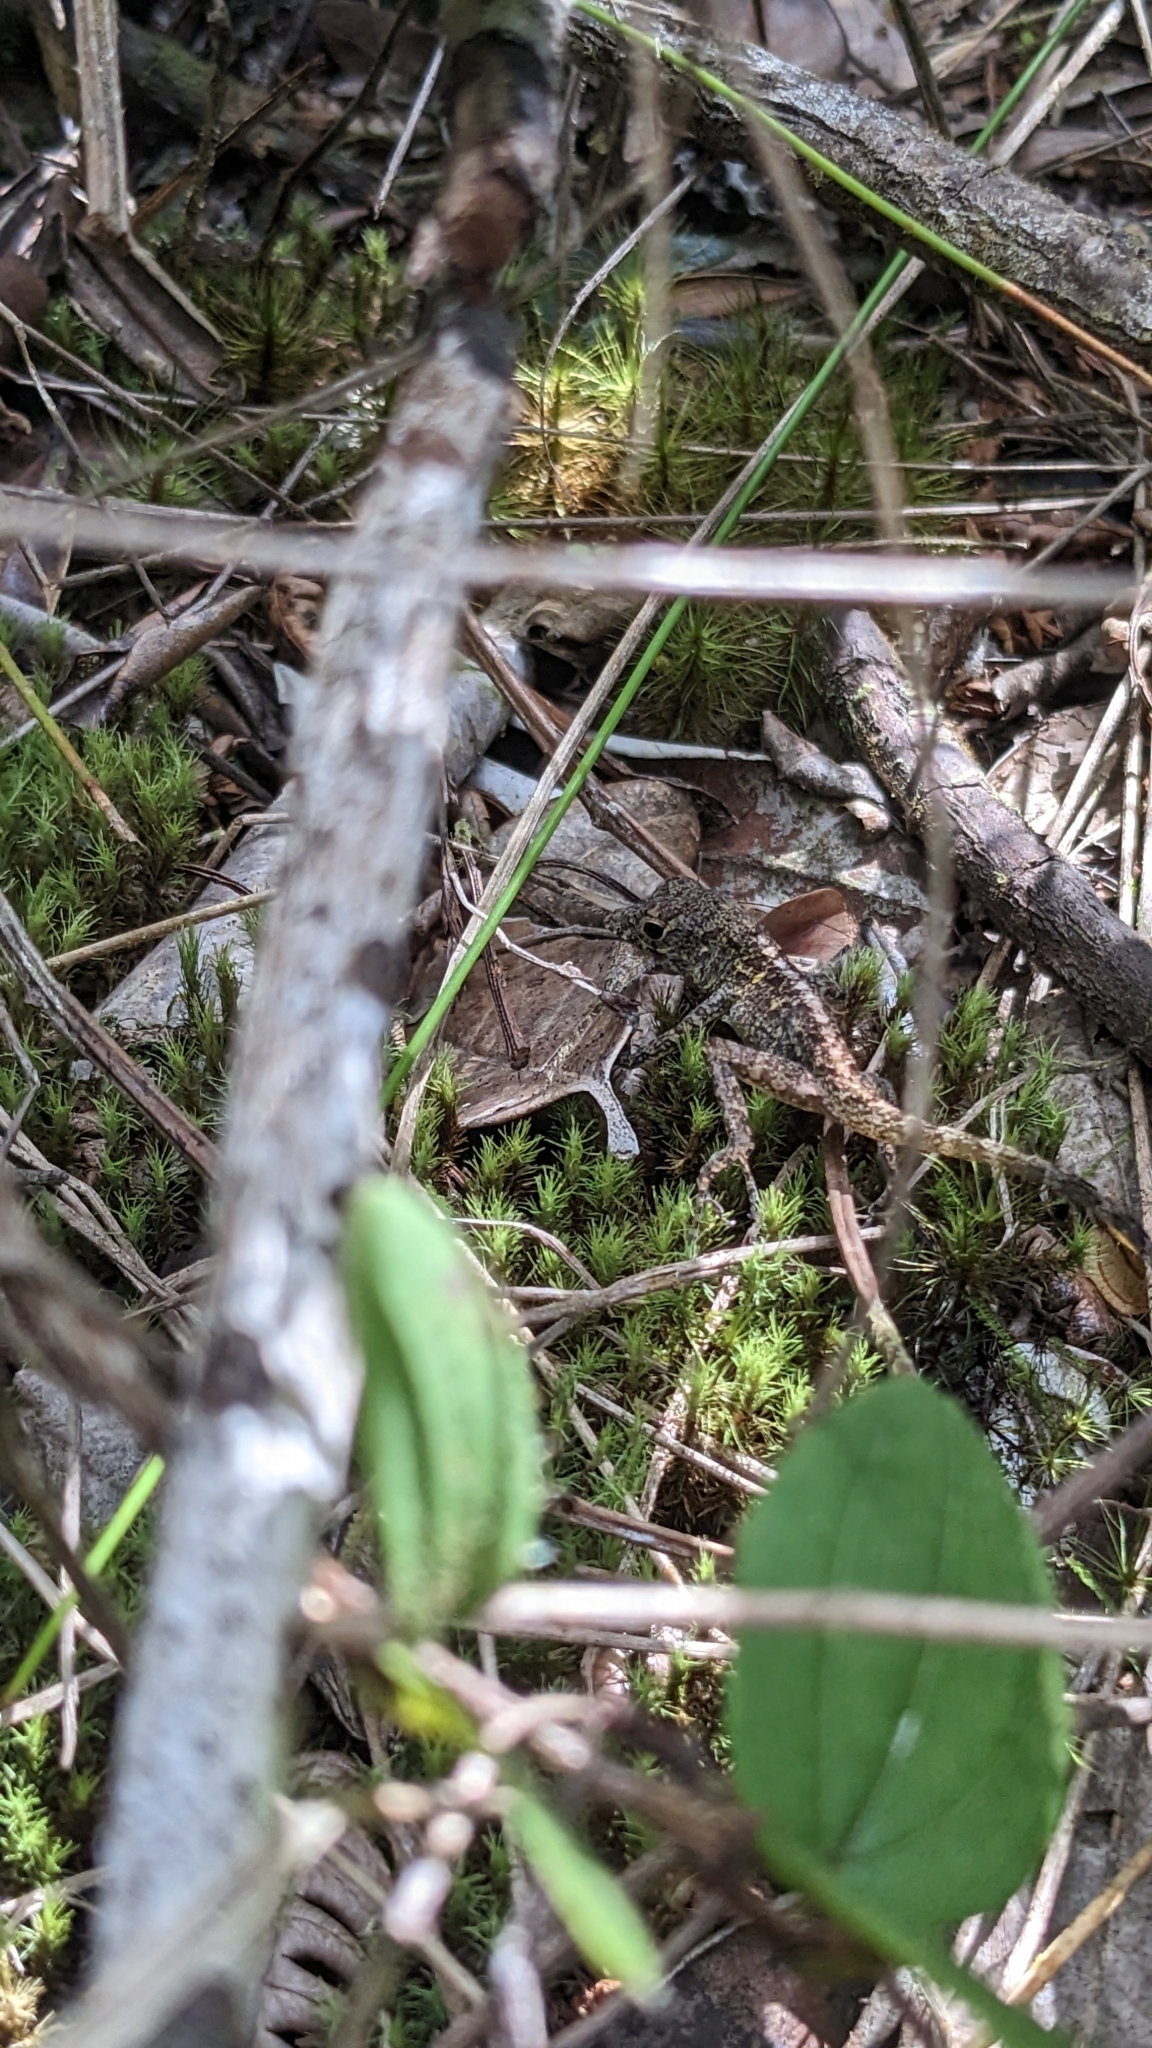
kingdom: Animalia
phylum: Chordata
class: Squamata
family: Dactyloidae
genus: Anolis
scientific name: Anolis allogus
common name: Bueycito anole
